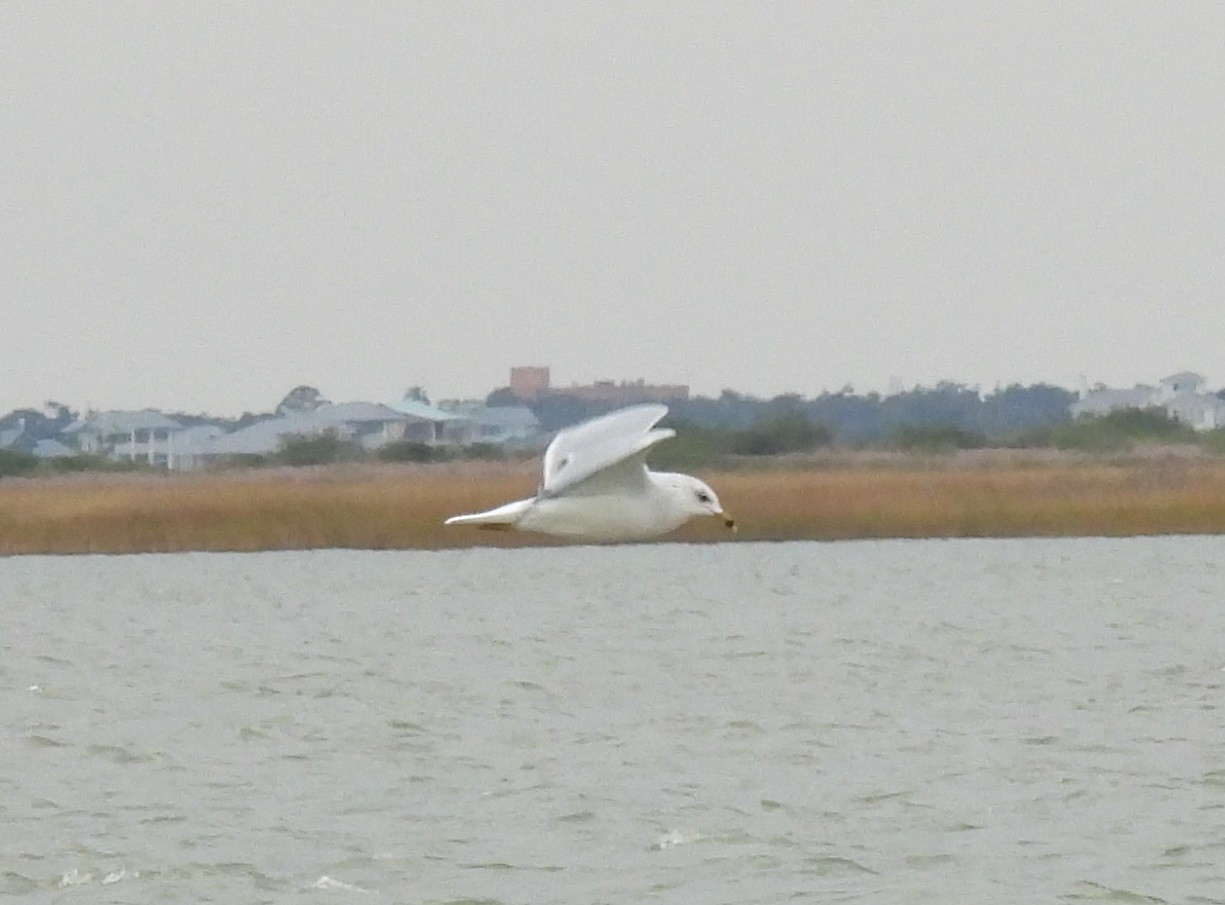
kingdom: Animalia
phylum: Chordata
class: Aves
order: Charadriiformes
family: Laridae
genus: Larus
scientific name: Larus delawarensis
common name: Ring-billed gull
